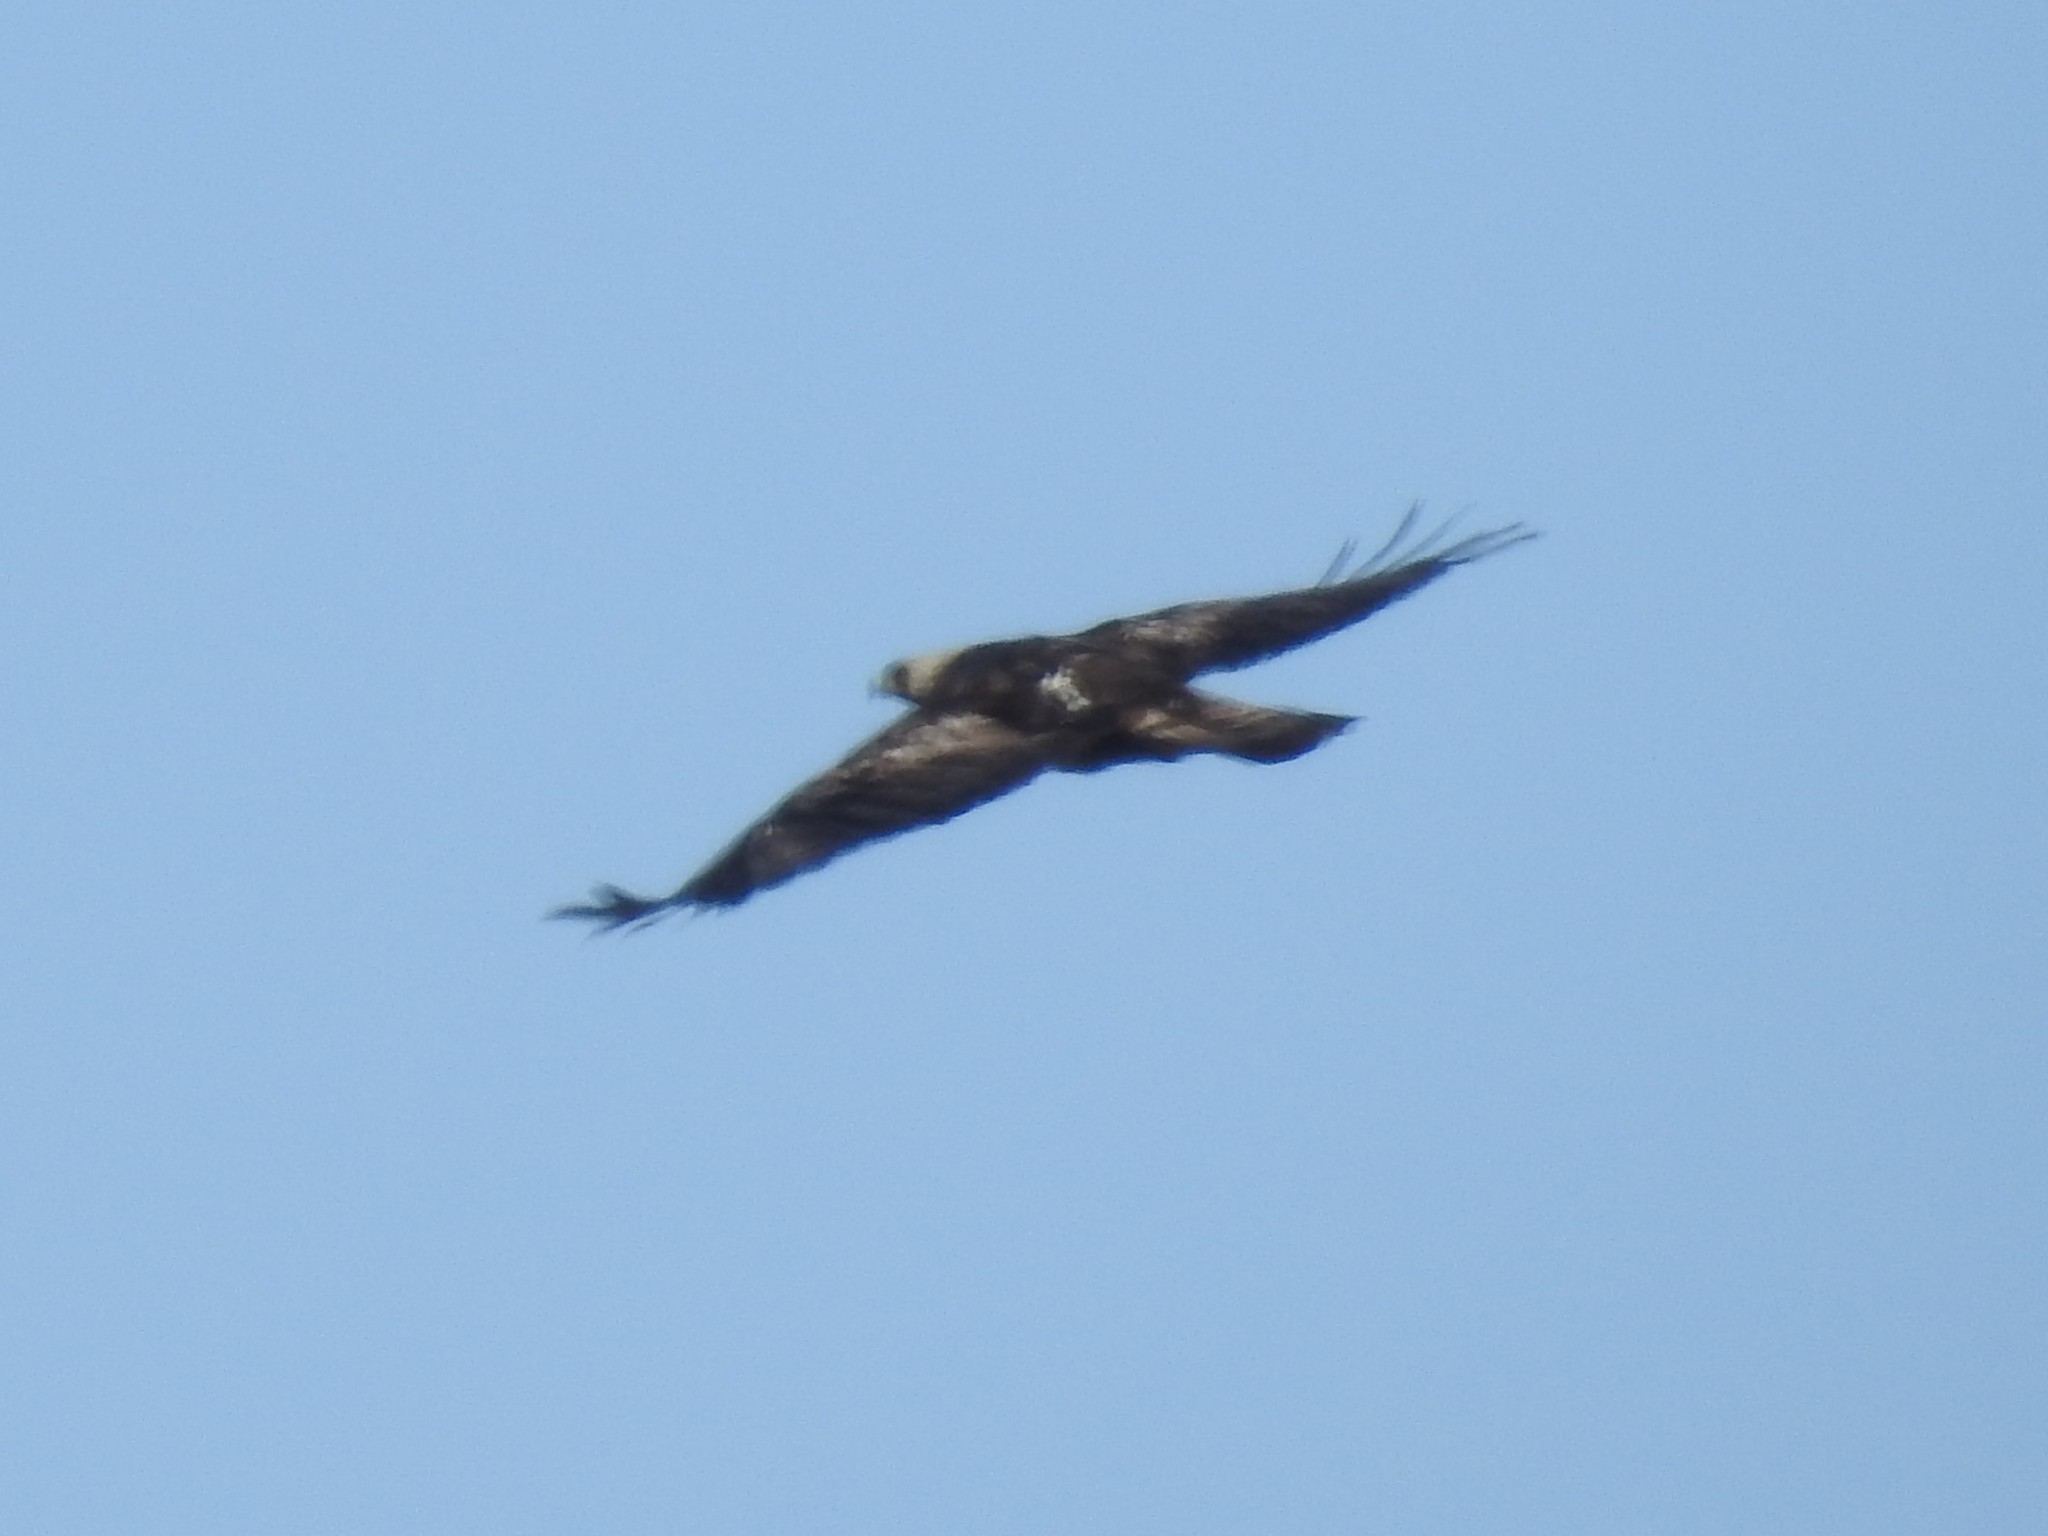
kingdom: Animalia
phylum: Chordata
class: Aves
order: Accipitriformes
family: Accipitridae
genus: Aquila
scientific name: Aquila chrysaetos
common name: Golden eagle
